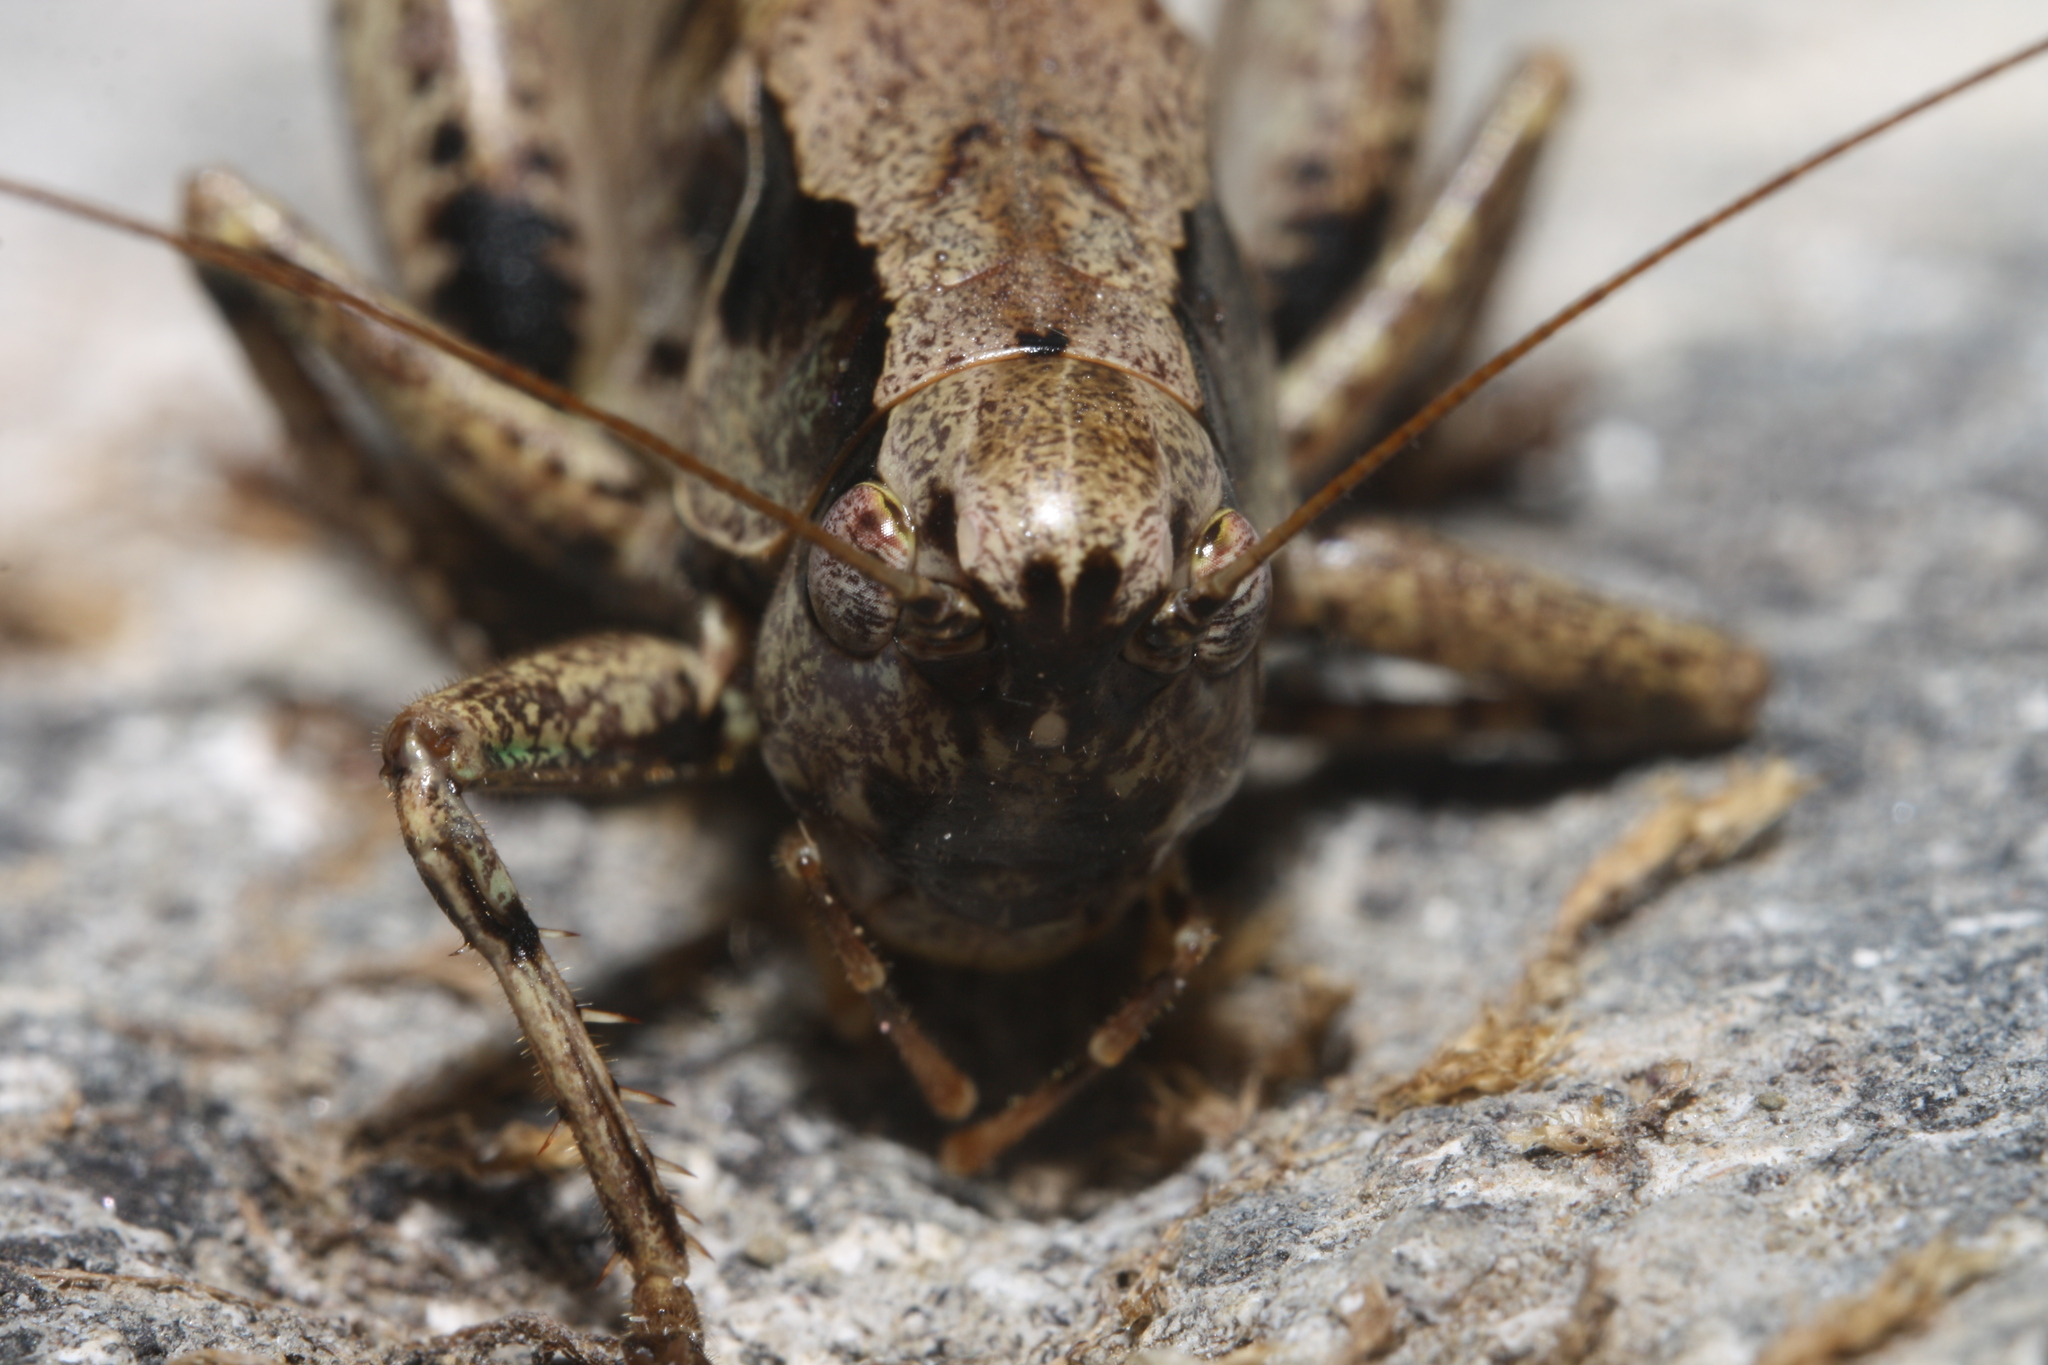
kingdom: Animalia
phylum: Arthropoda
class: Insecta
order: Orthoptera
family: Tettigoniidae
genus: Pholidoptera
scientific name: Pholidoptera griseoaptera
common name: Dark bush-cricket
